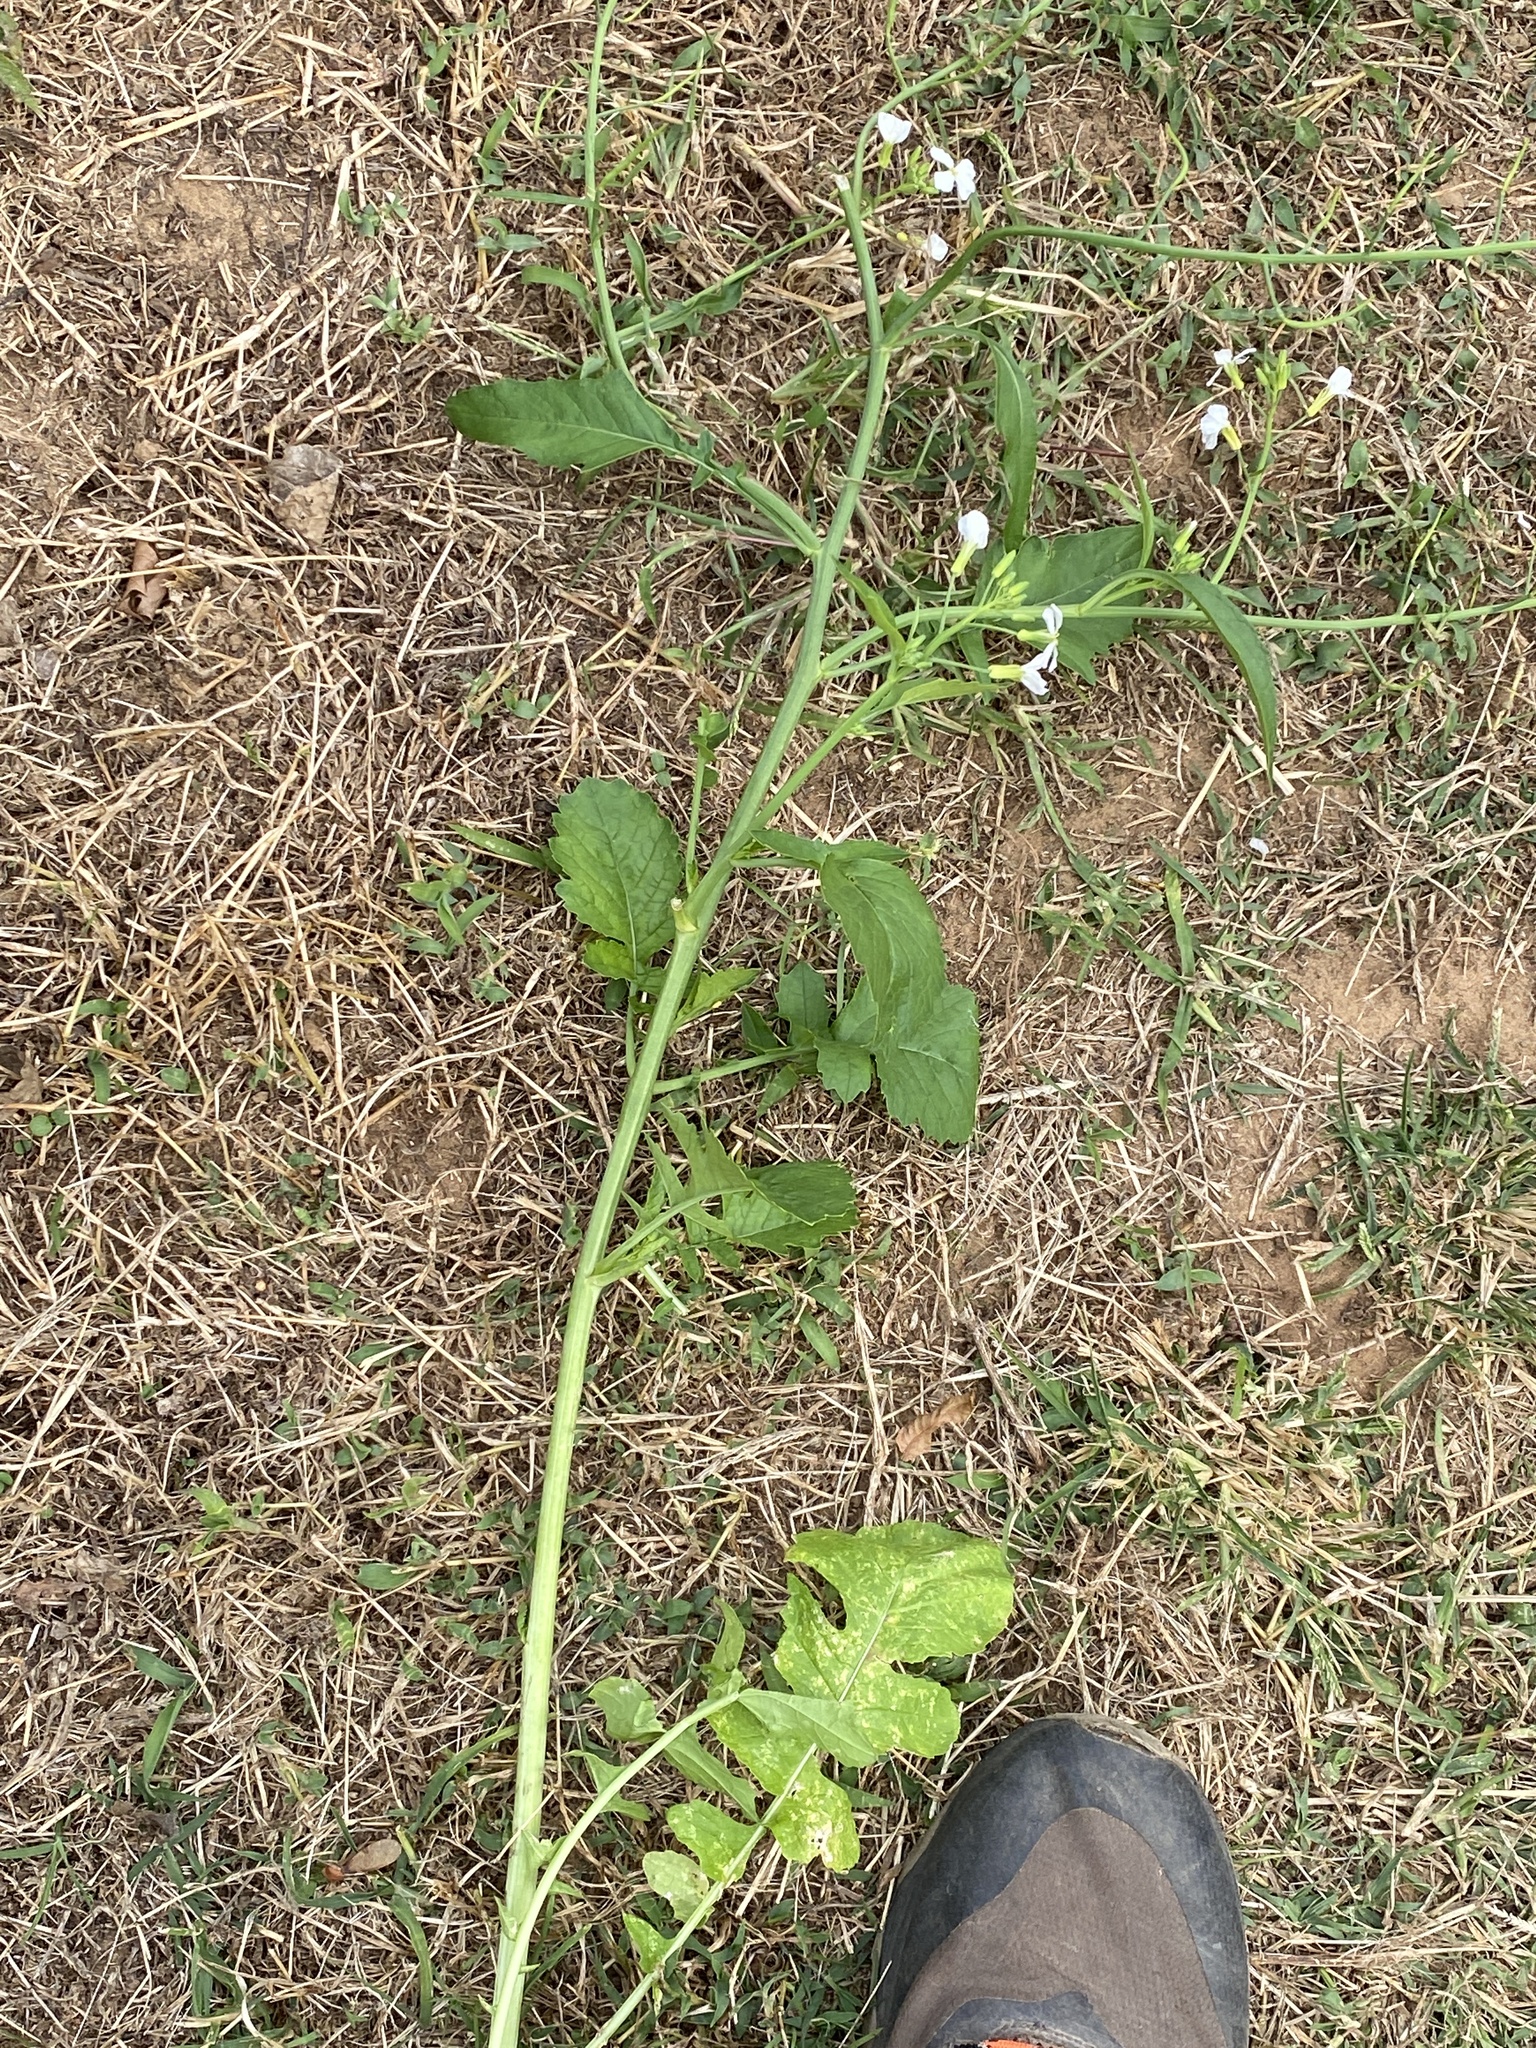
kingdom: Plantae
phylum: Tracheophyta
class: Magnoliopsida
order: Brassicales
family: Brassicaceae
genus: Raphanus
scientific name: Raphanus raphanistrum
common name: Wild radish
